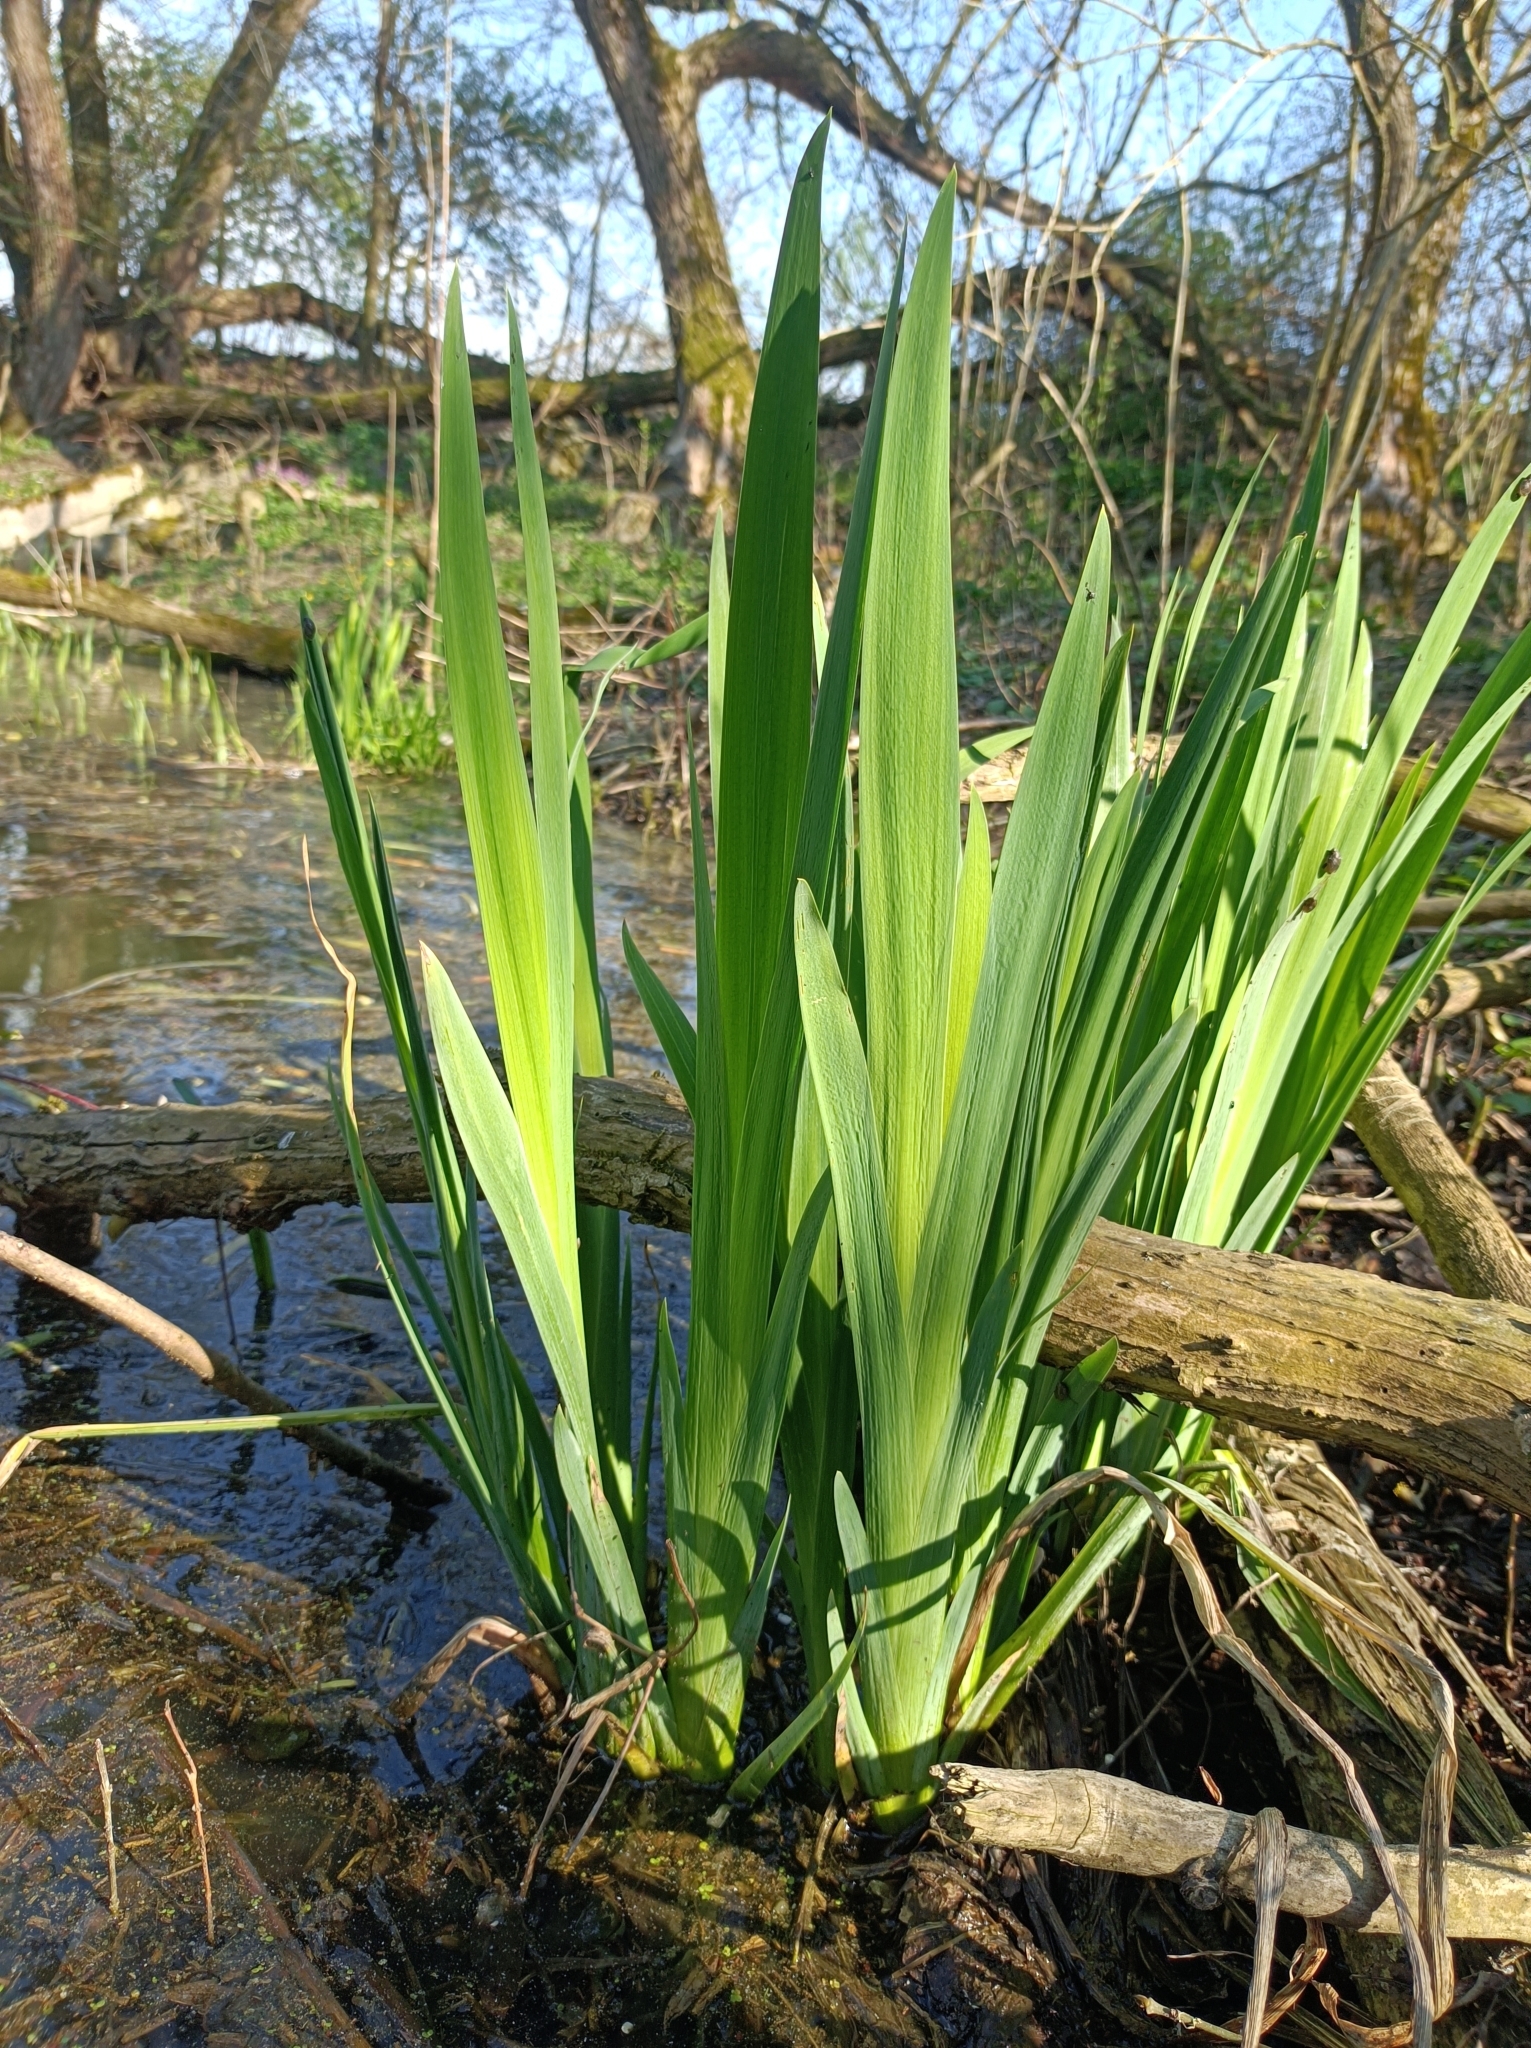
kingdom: Plantae
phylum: Tracheophyta
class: Liliopsida
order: Asparagales
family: Iridaceae
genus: Iris
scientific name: Iris pseudacorus
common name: Yellow flag
